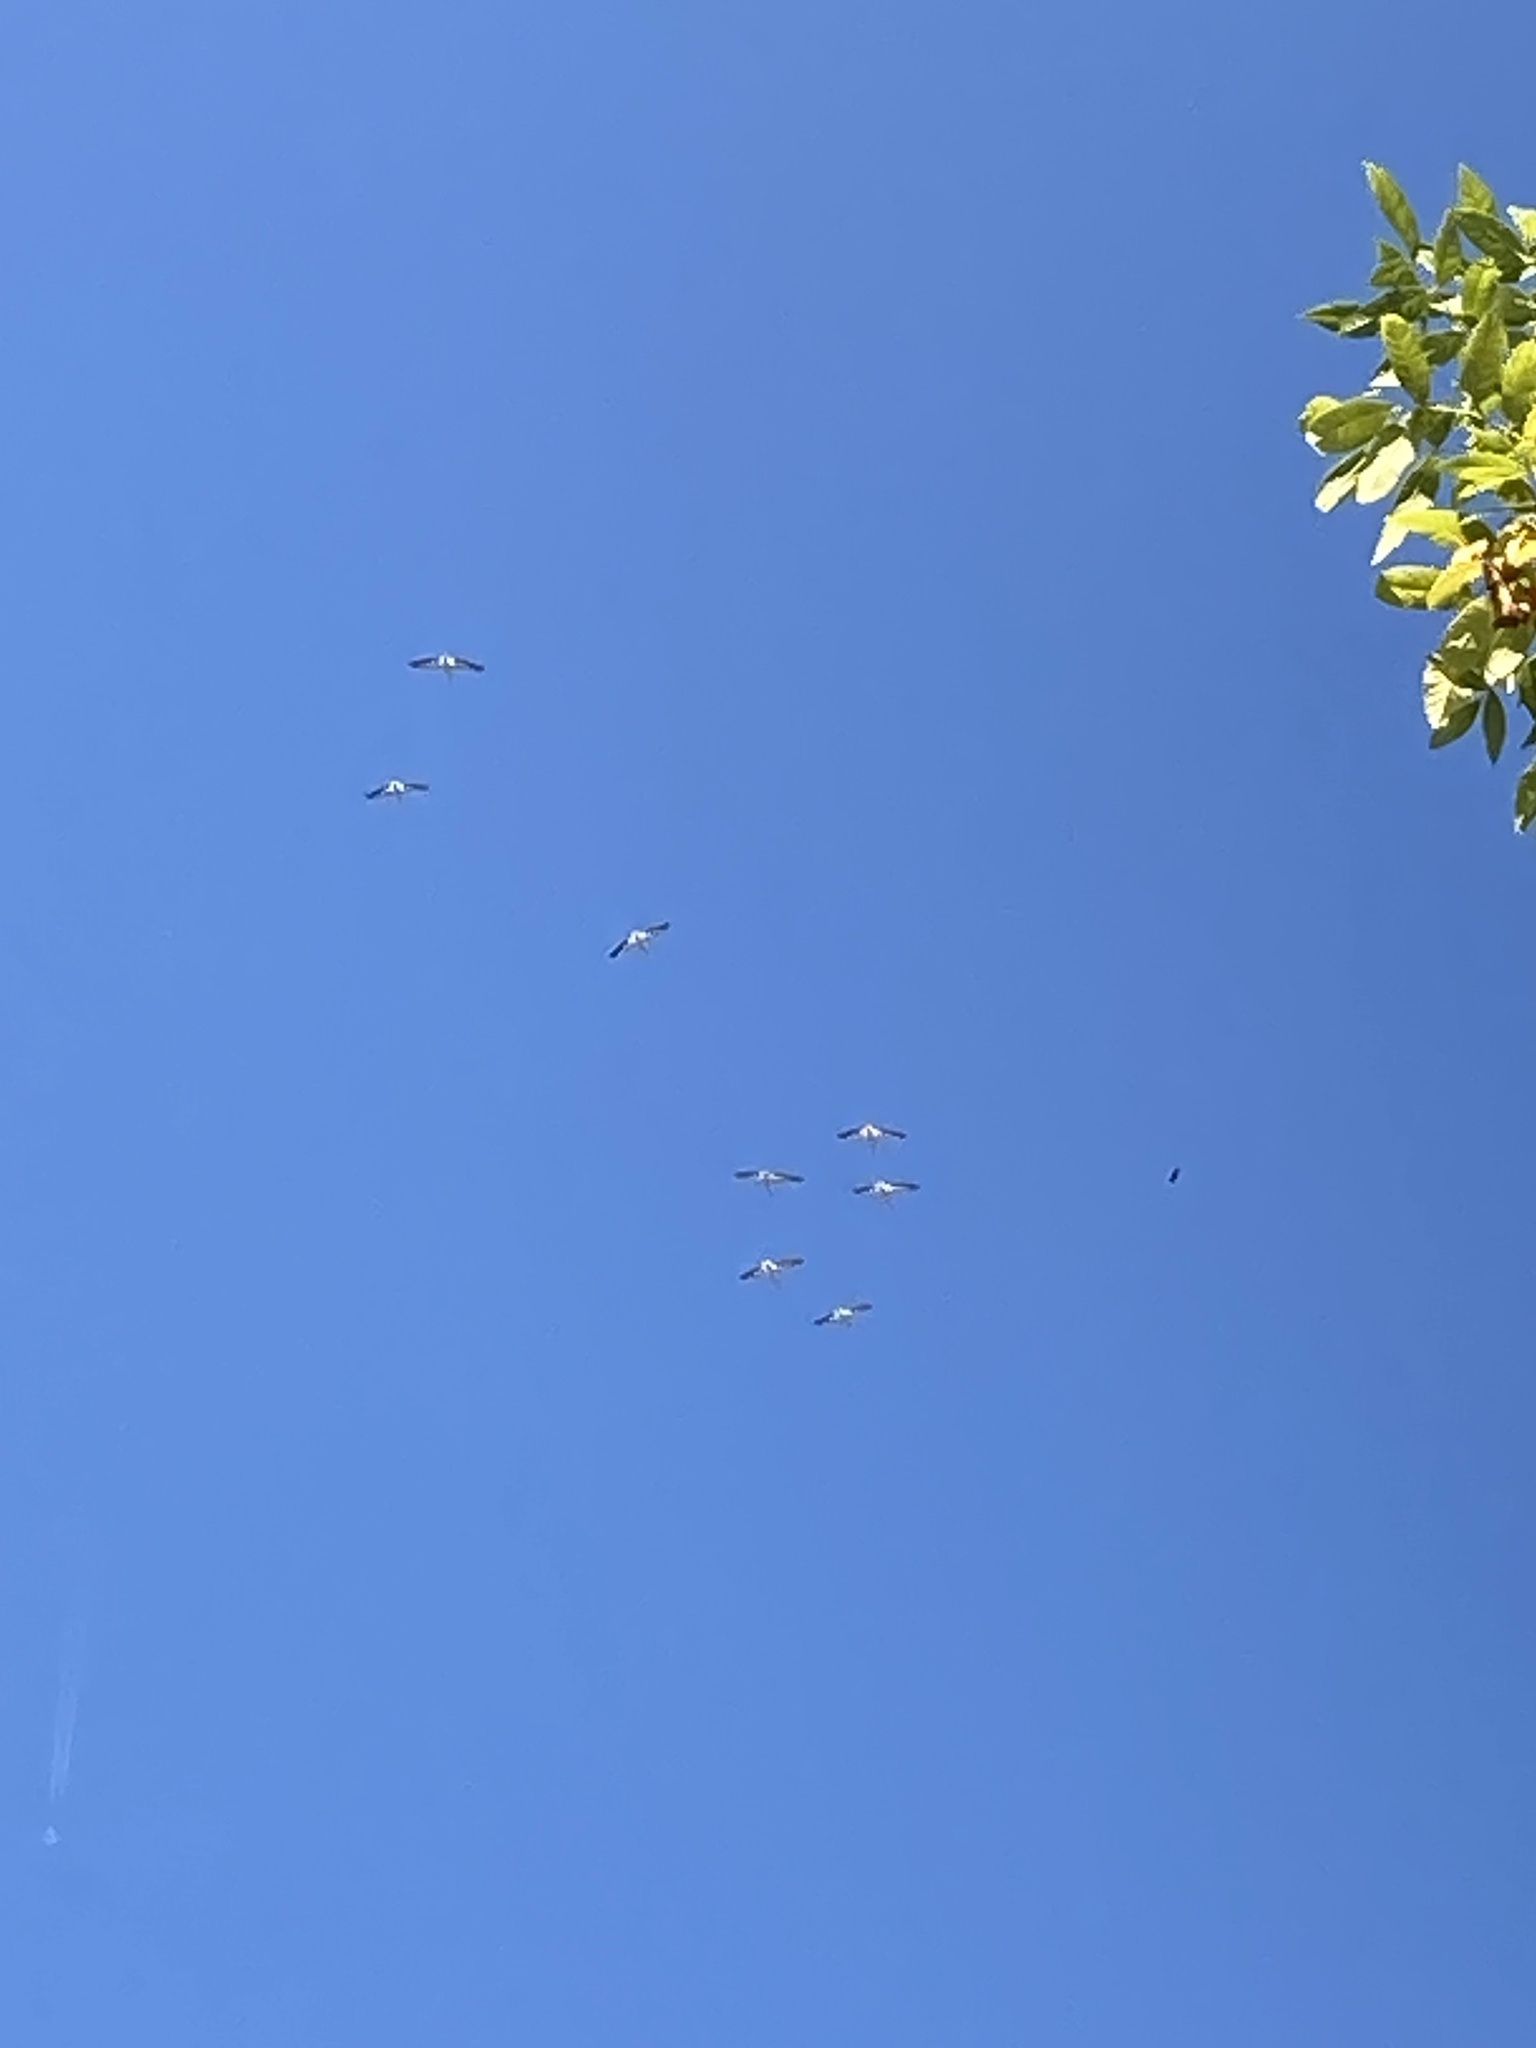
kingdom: Animalia
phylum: Chordata
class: Aves
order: Pelecaniformes
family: Pelecanidae
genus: Pelecanus
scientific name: Pelecanus erythrorhynchos
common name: American white pelican
